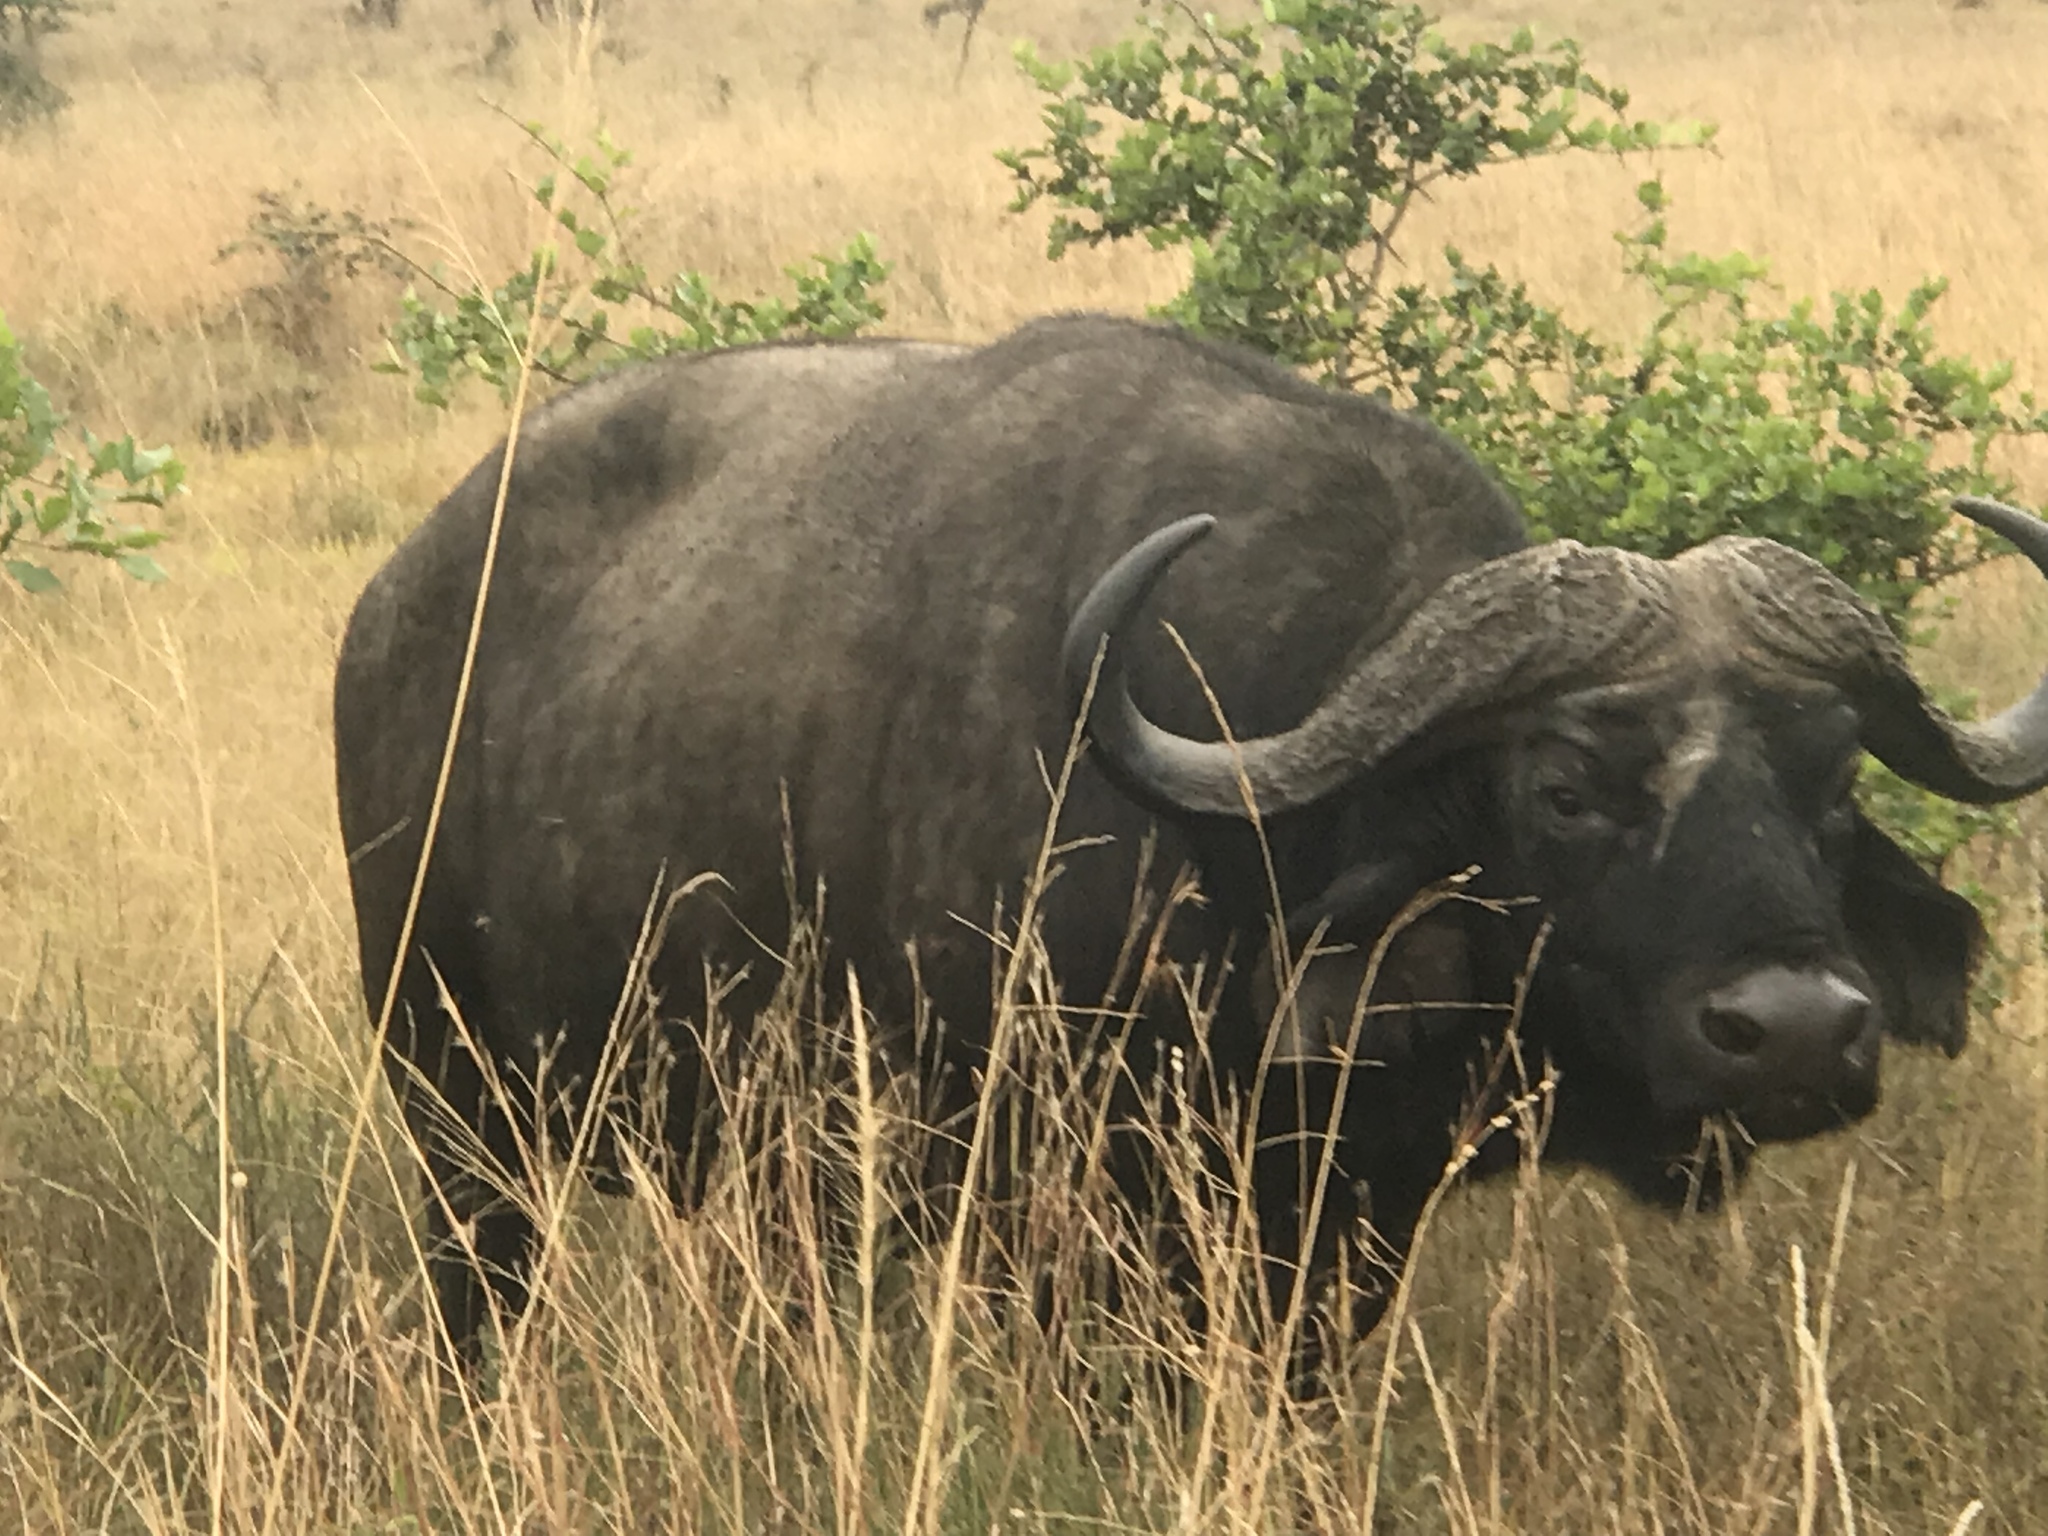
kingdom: Animalia
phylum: Chordata
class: Mammalia
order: Artiodactyla
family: Bovidae
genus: Syncerus
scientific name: Syncerus caffer
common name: African buffalo
